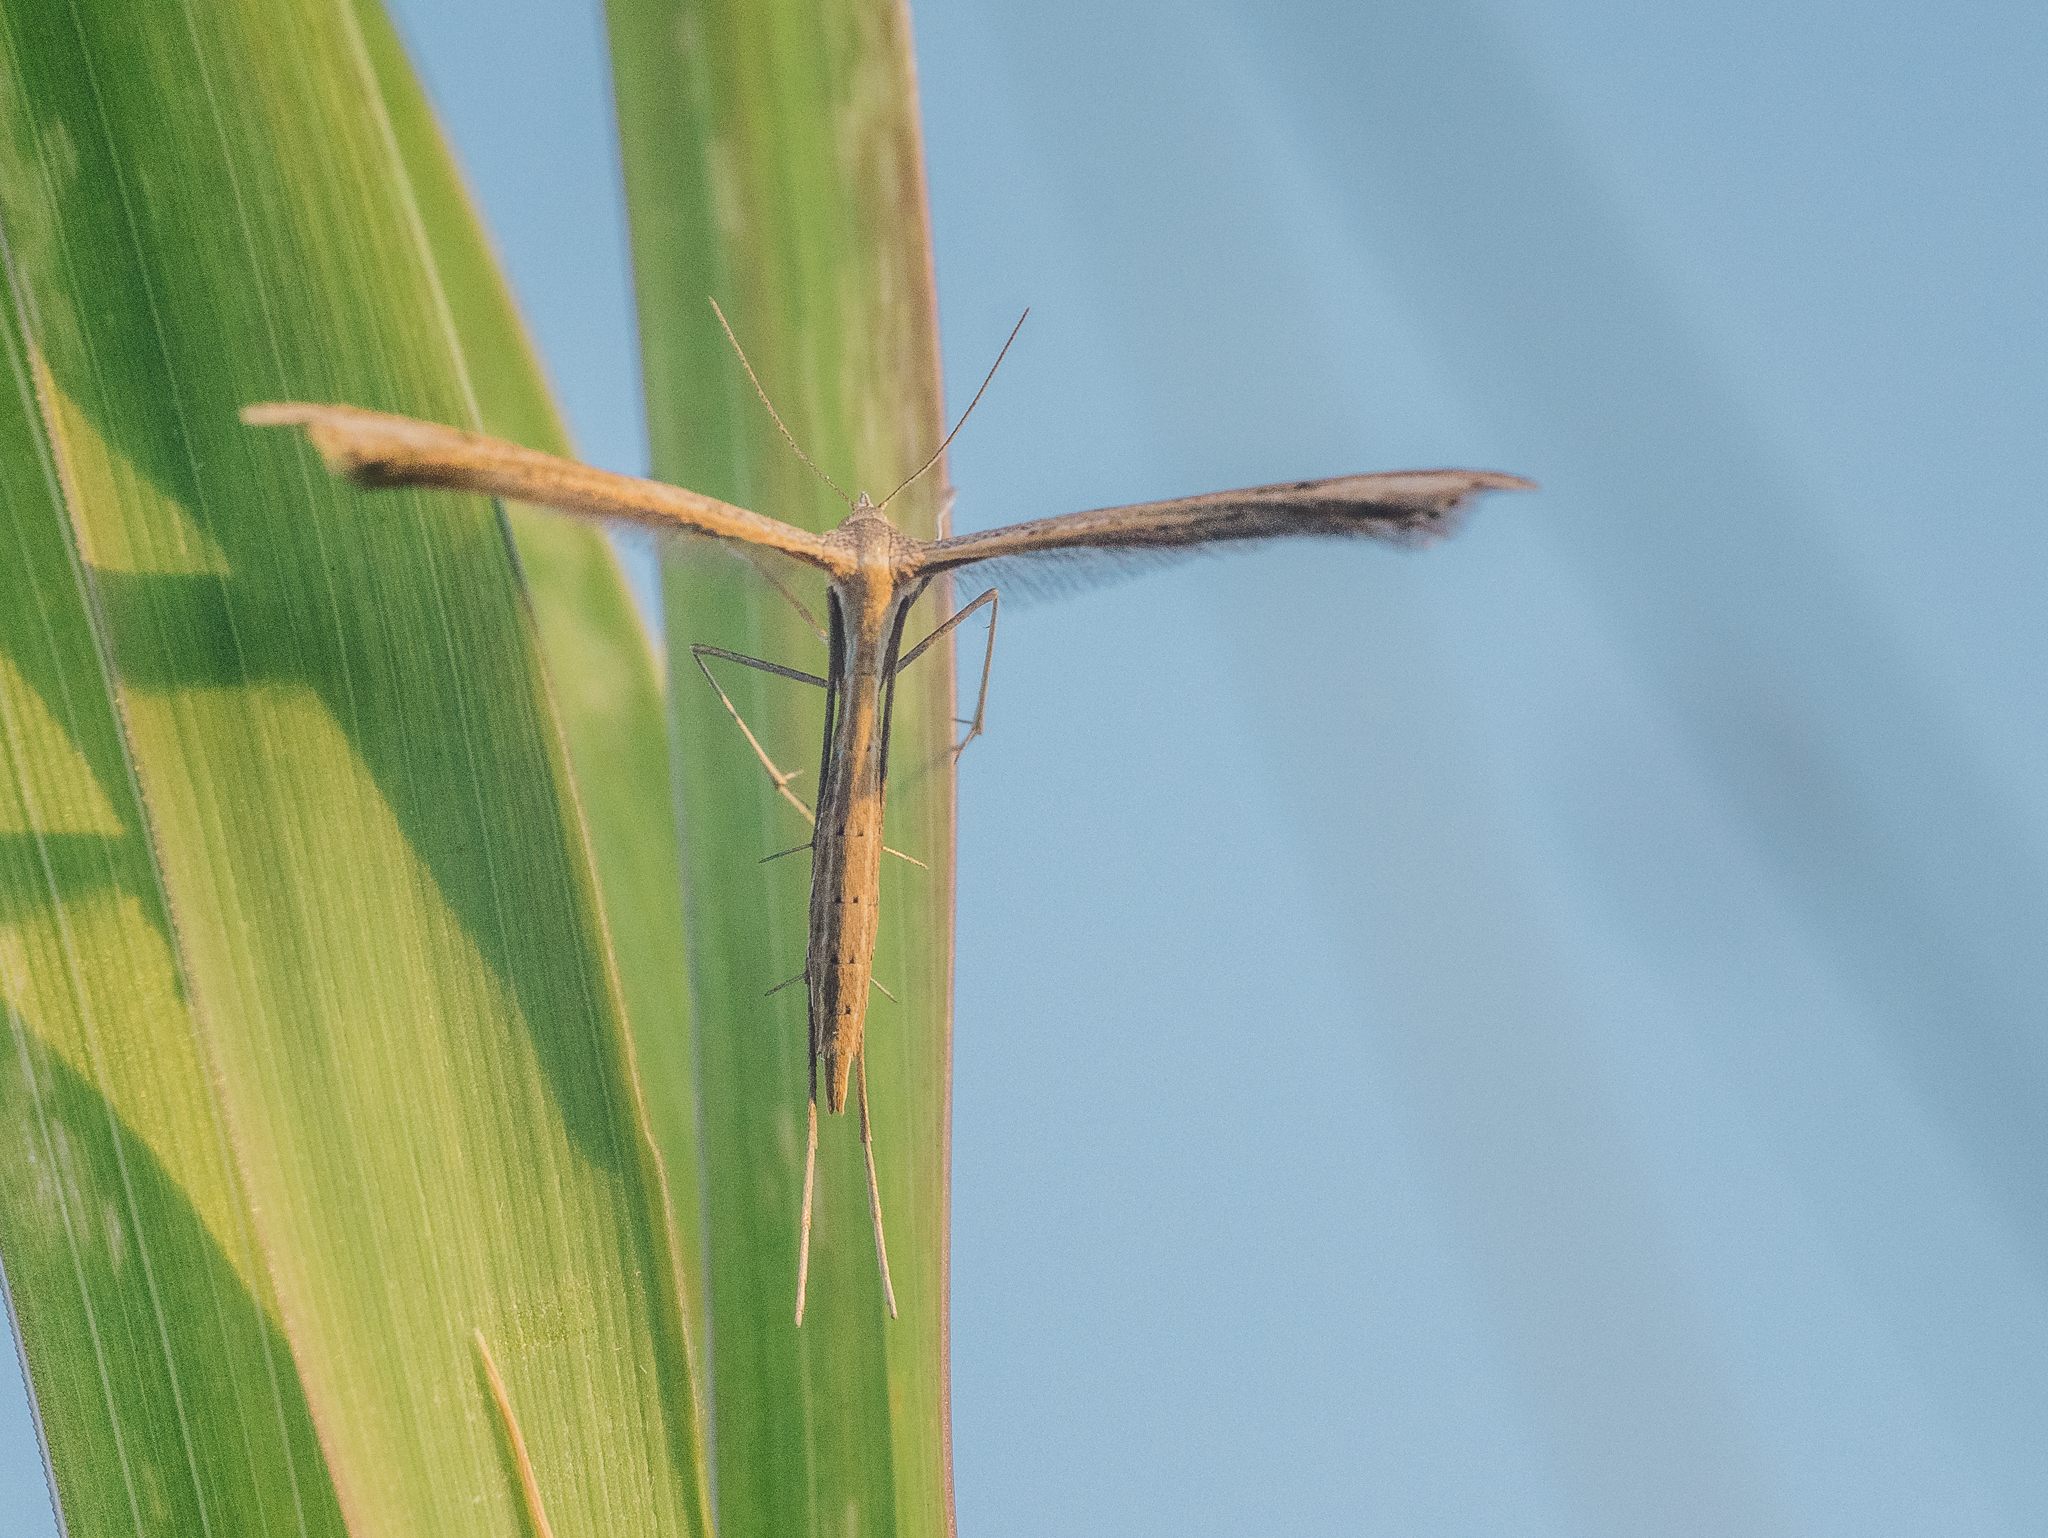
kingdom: Animalia
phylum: Arthropoda
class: Insecta
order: Lepidoptera
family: Pterophoridae
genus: Stenoptilia
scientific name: Stenoptilia bipunctidactyla
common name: Twin-spot plume
